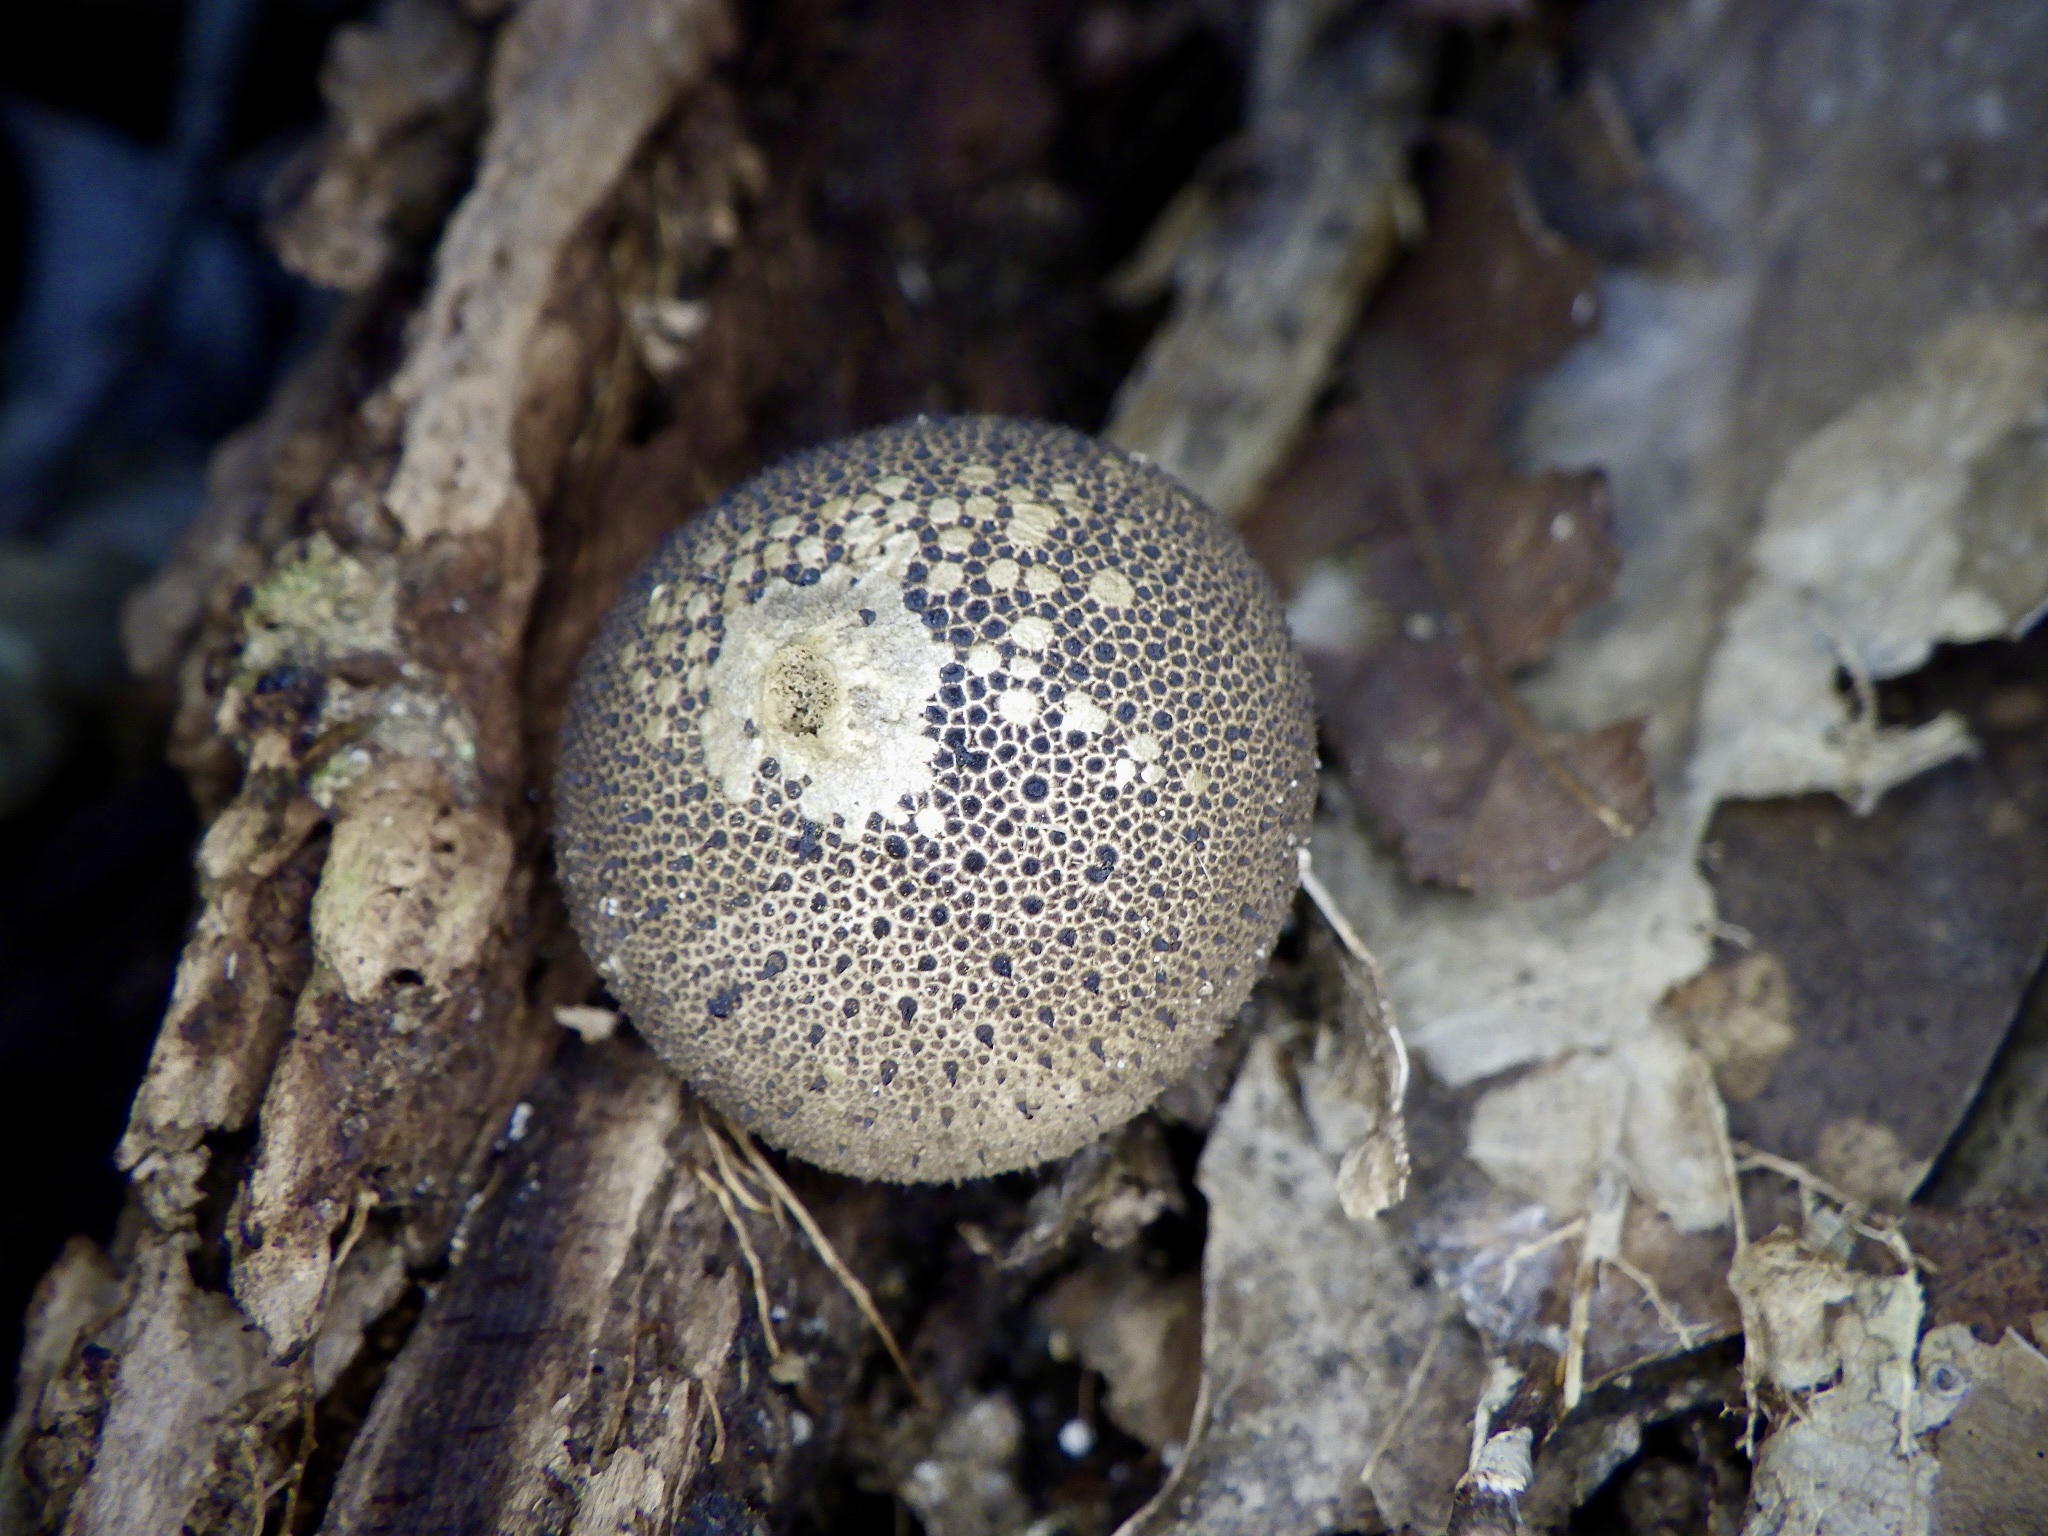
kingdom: Fungi
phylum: Basidiomycota
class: Agaricomycetes
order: Agaricales
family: Lycoperdaceae
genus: Lycoperdon
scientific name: Lycoperdon perlatum
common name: Common puffball
